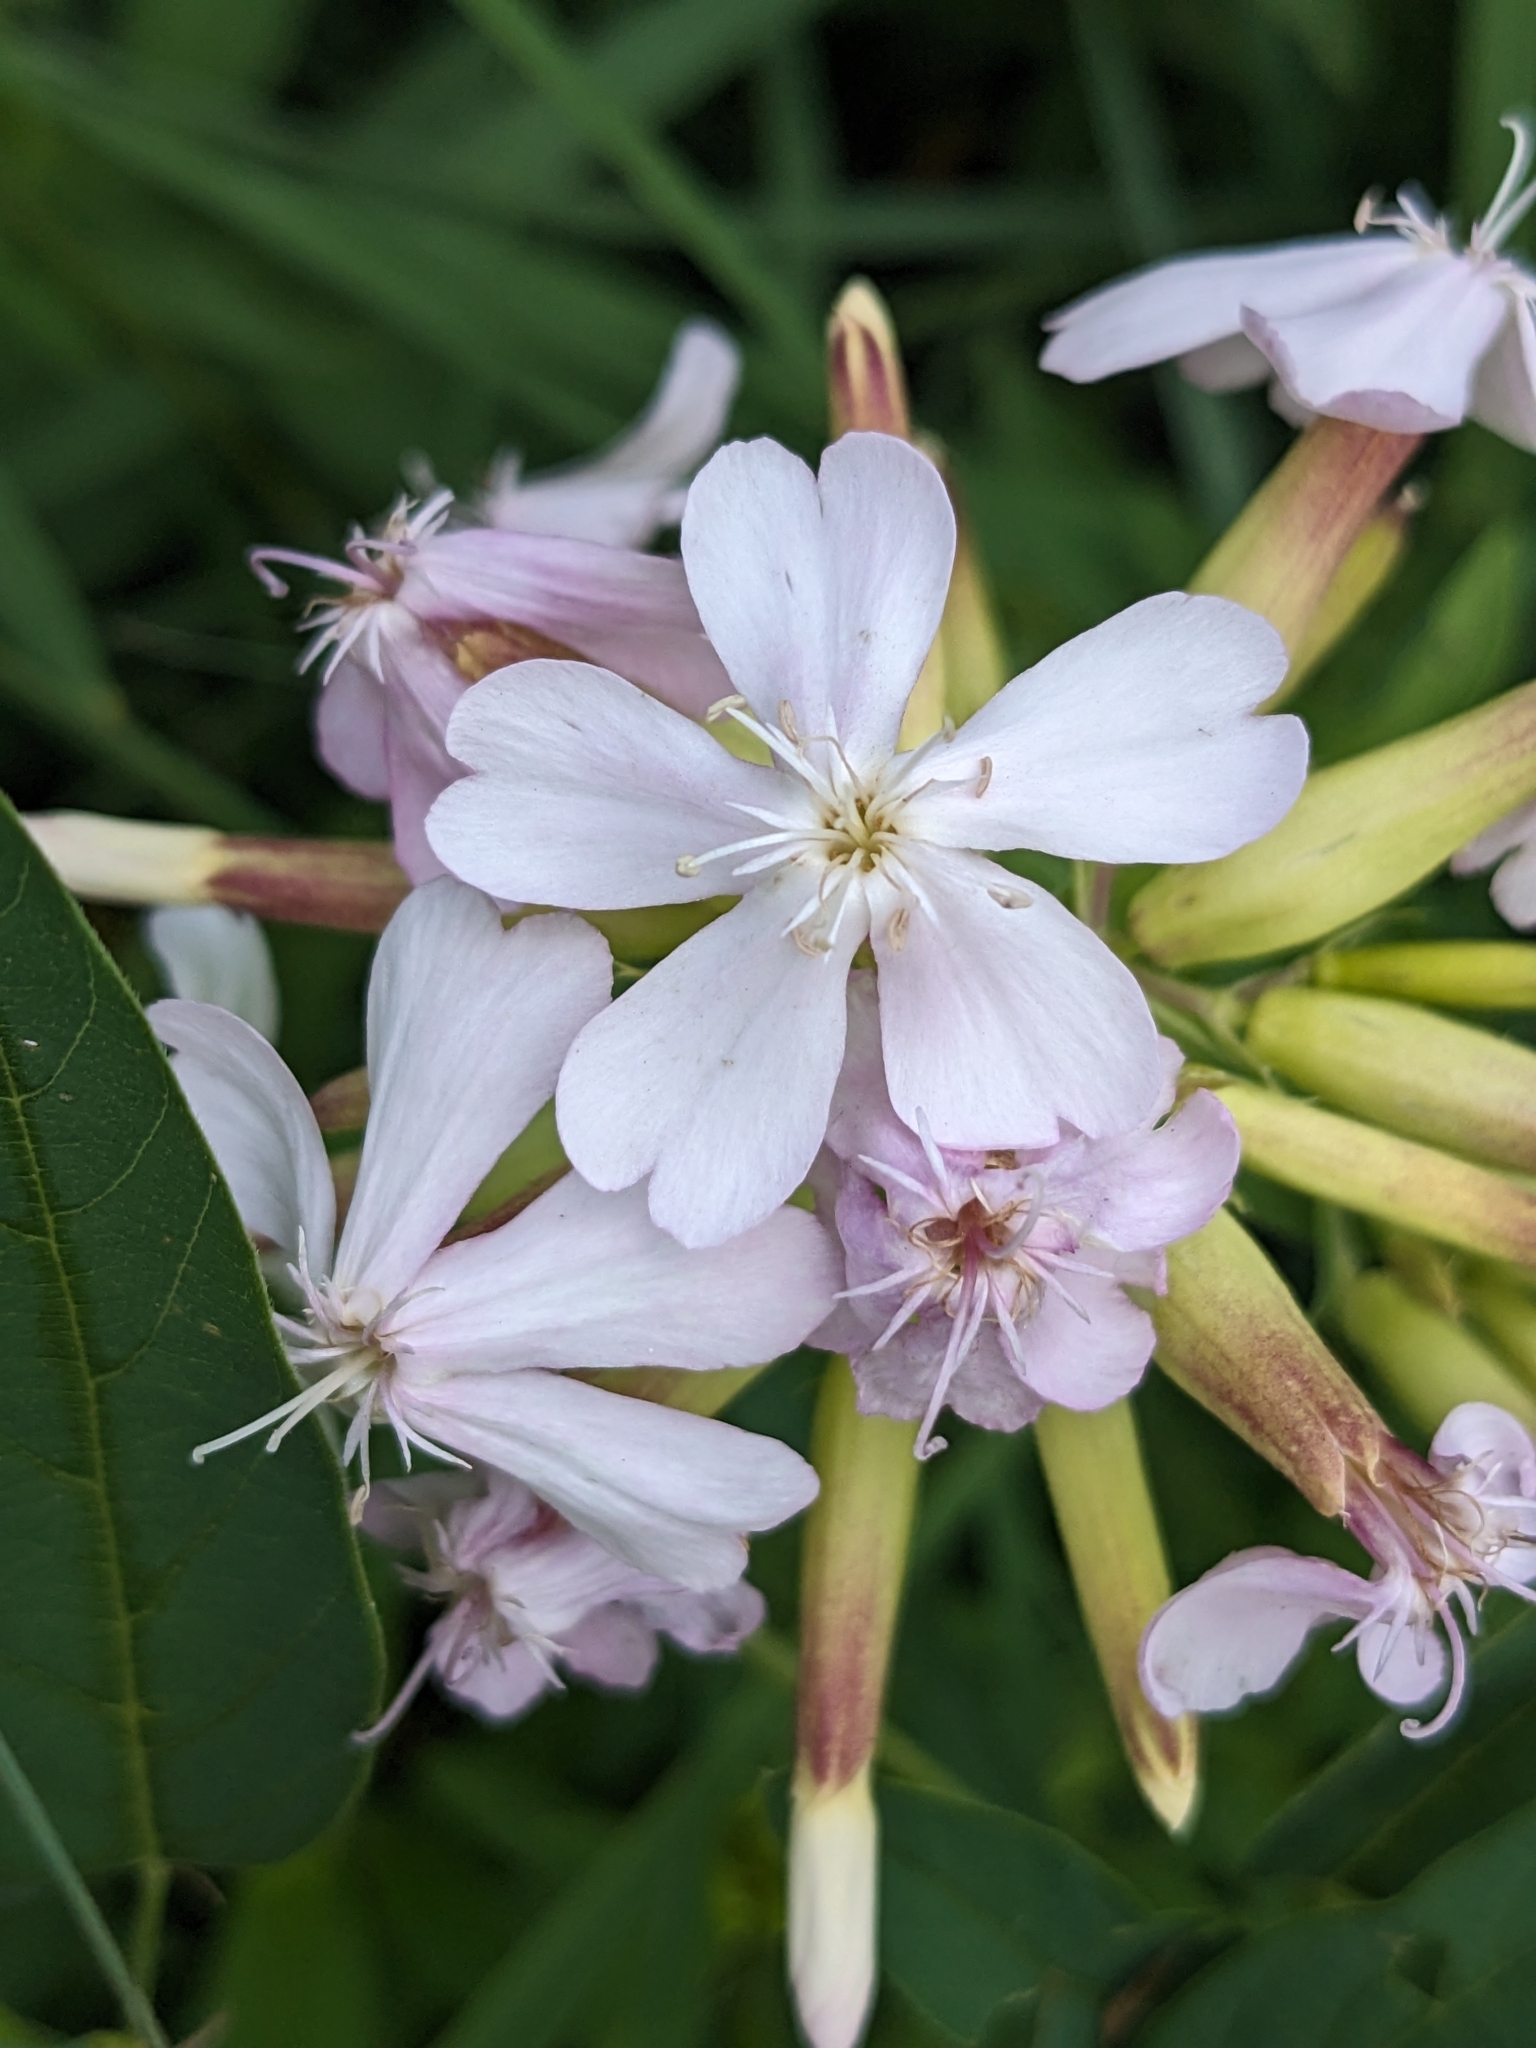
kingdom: Plantae
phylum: Tracheophyta
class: Magnoliopsida
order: Caryophyllales
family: Caryophyllaceae
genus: Saponaria
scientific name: Saponaria officinalis
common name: Soapwort
